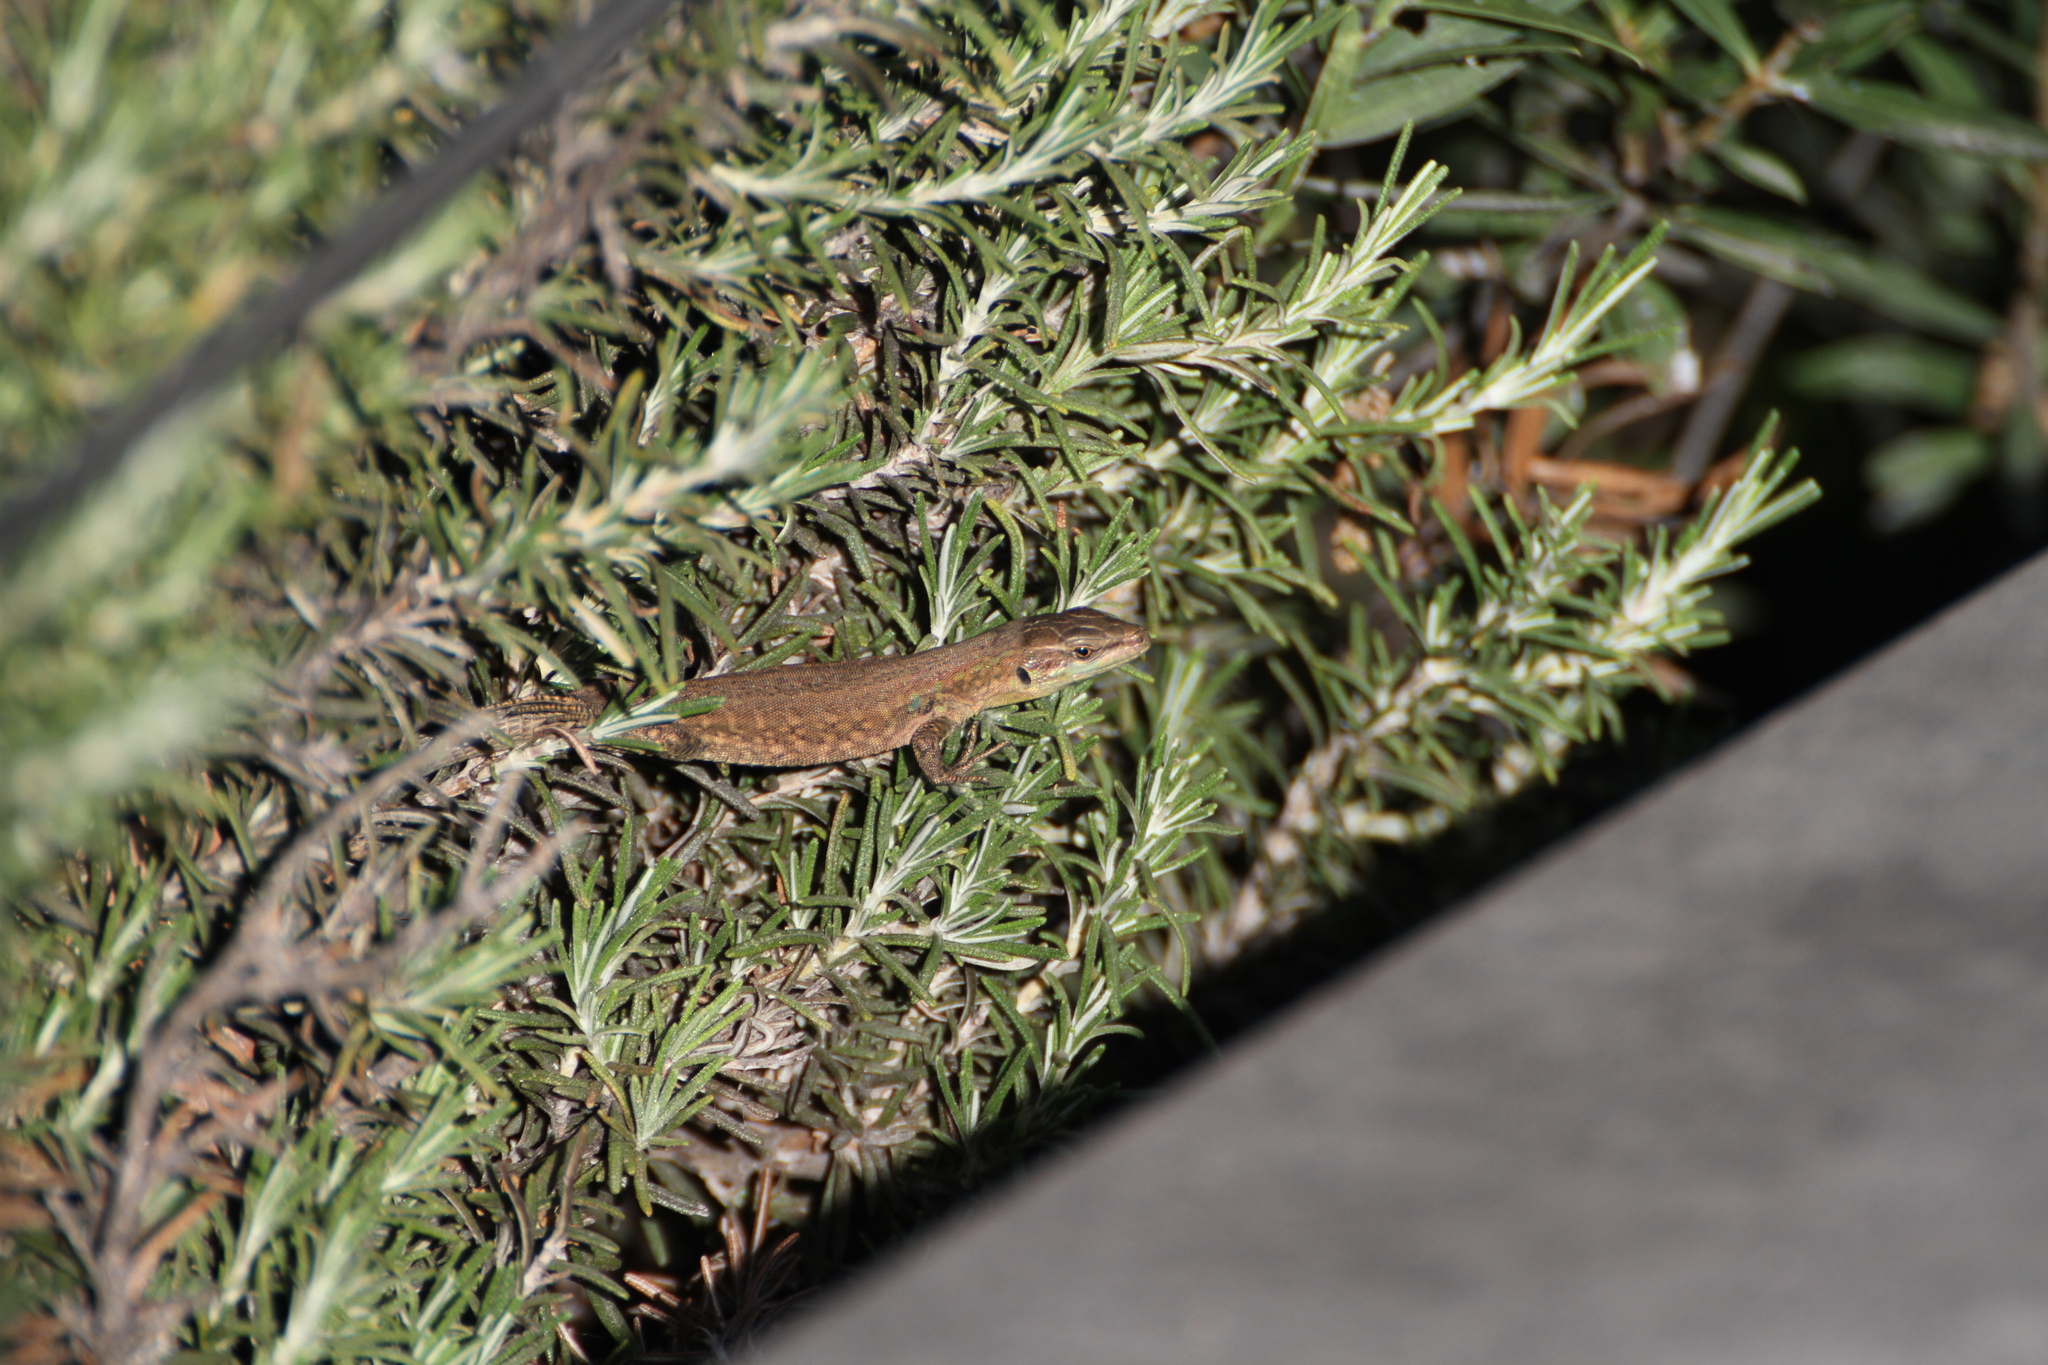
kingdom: Animalia
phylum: Chordata
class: Squamata
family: Lacertidae
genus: Podarcis
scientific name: Podarcis siculus
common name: Italian wall lizard
